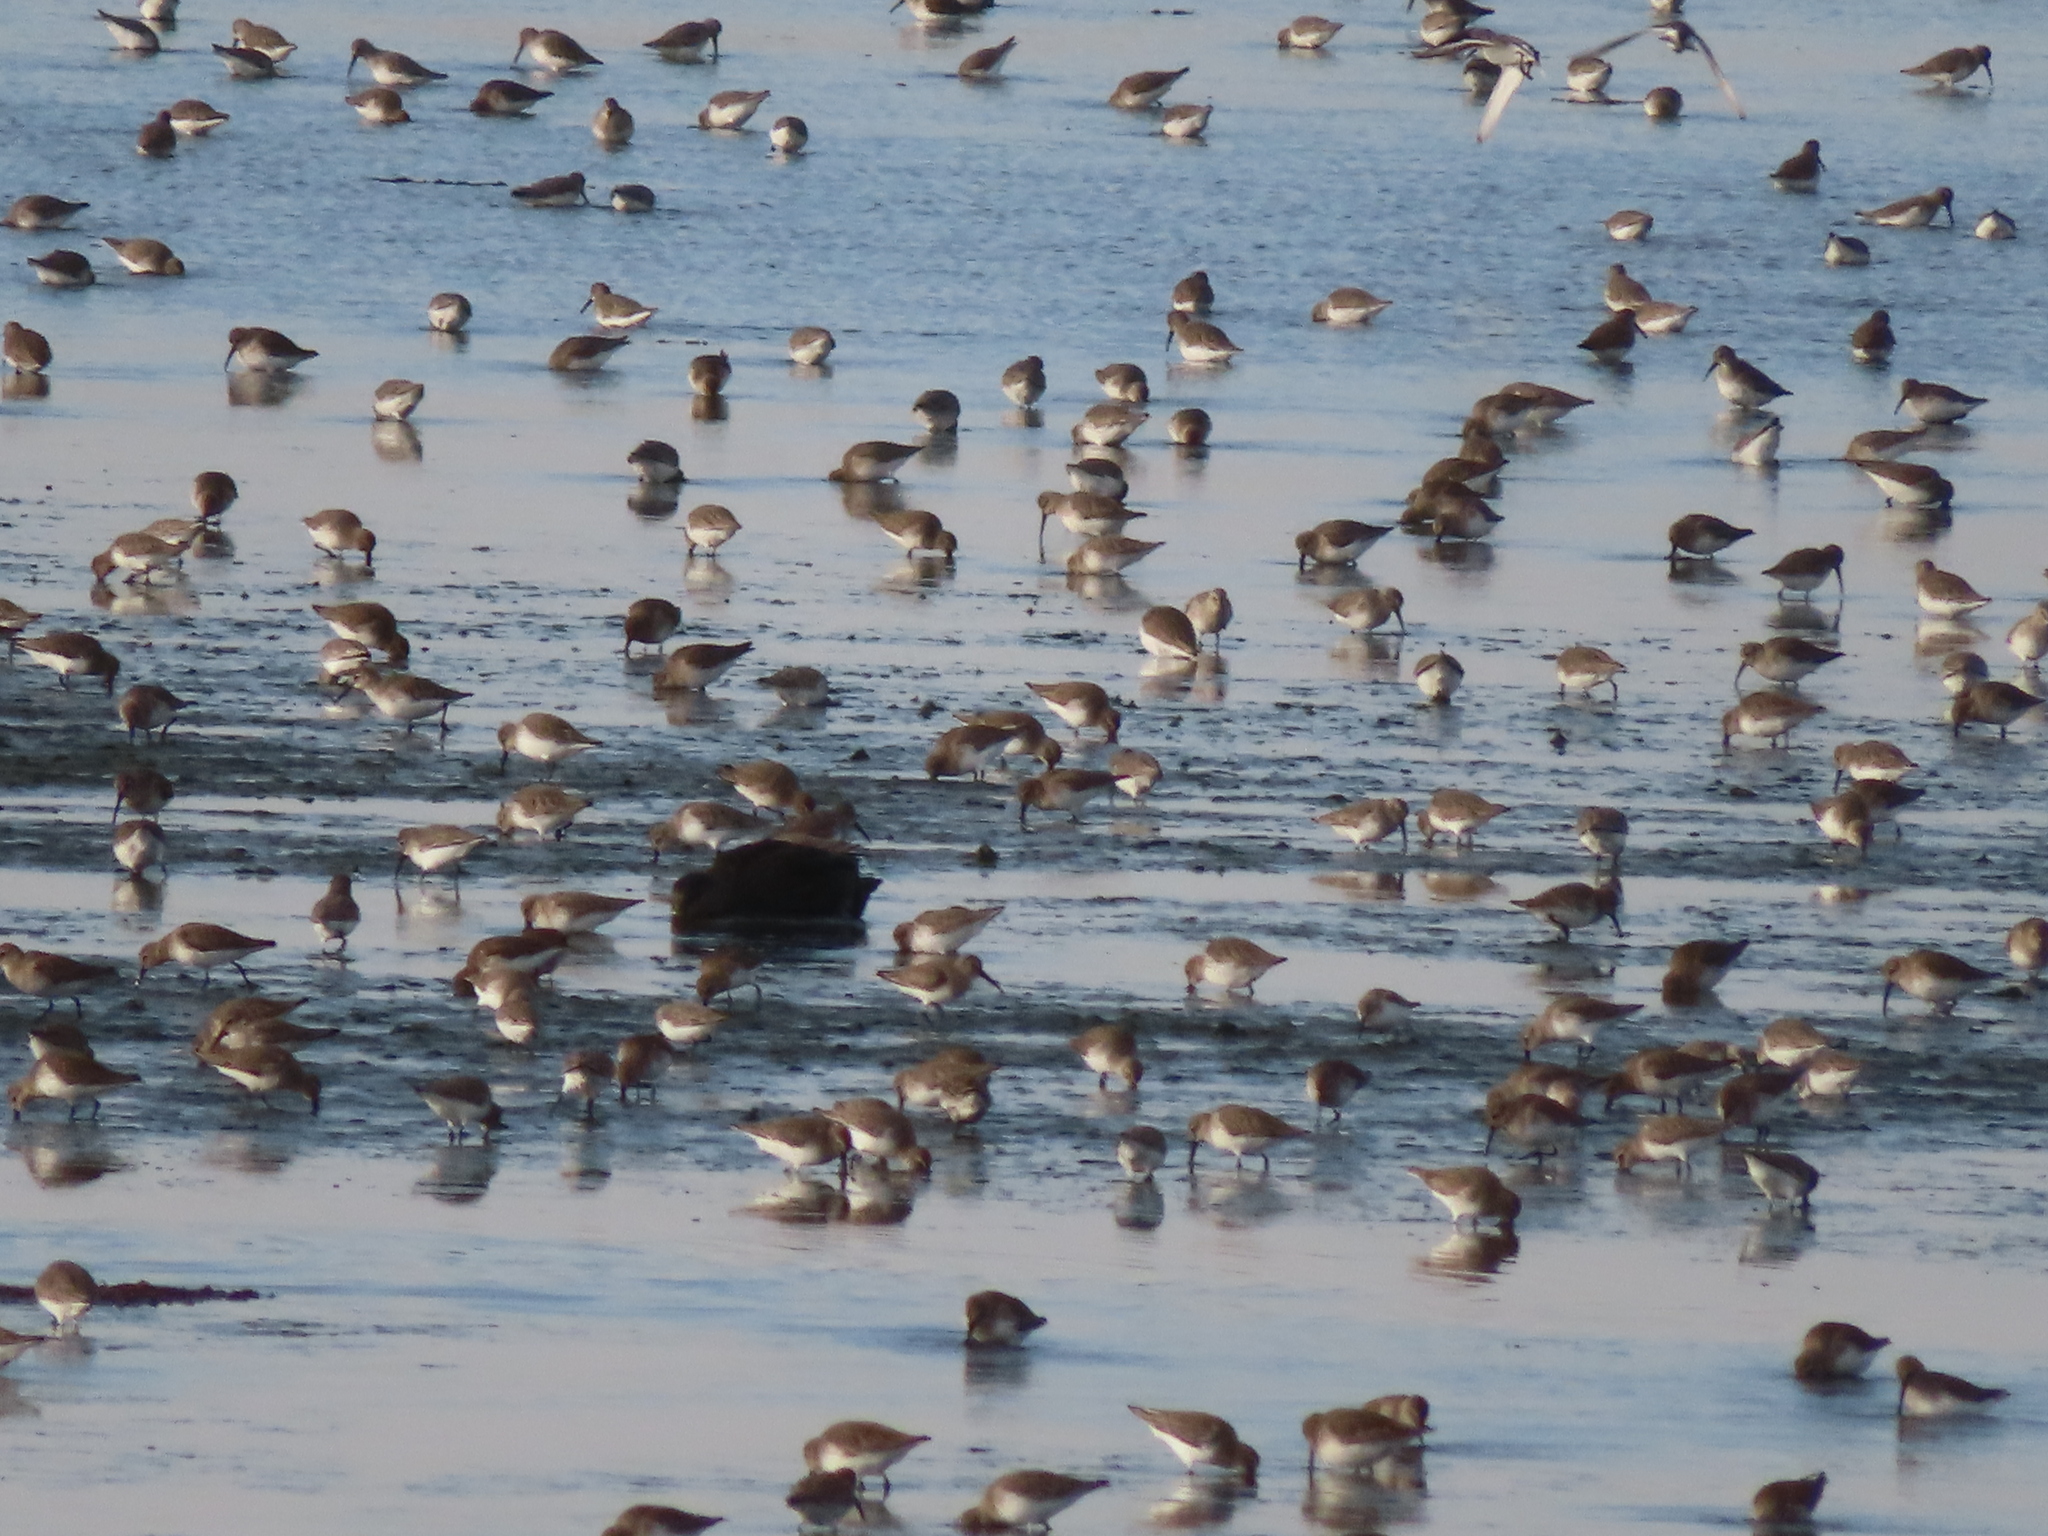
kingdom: Animalia
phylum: Chordata
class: Aves
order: Charadriiformes
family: Scolopacidae
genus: Calidris
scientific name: Calidris alpina
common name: Dunlin
